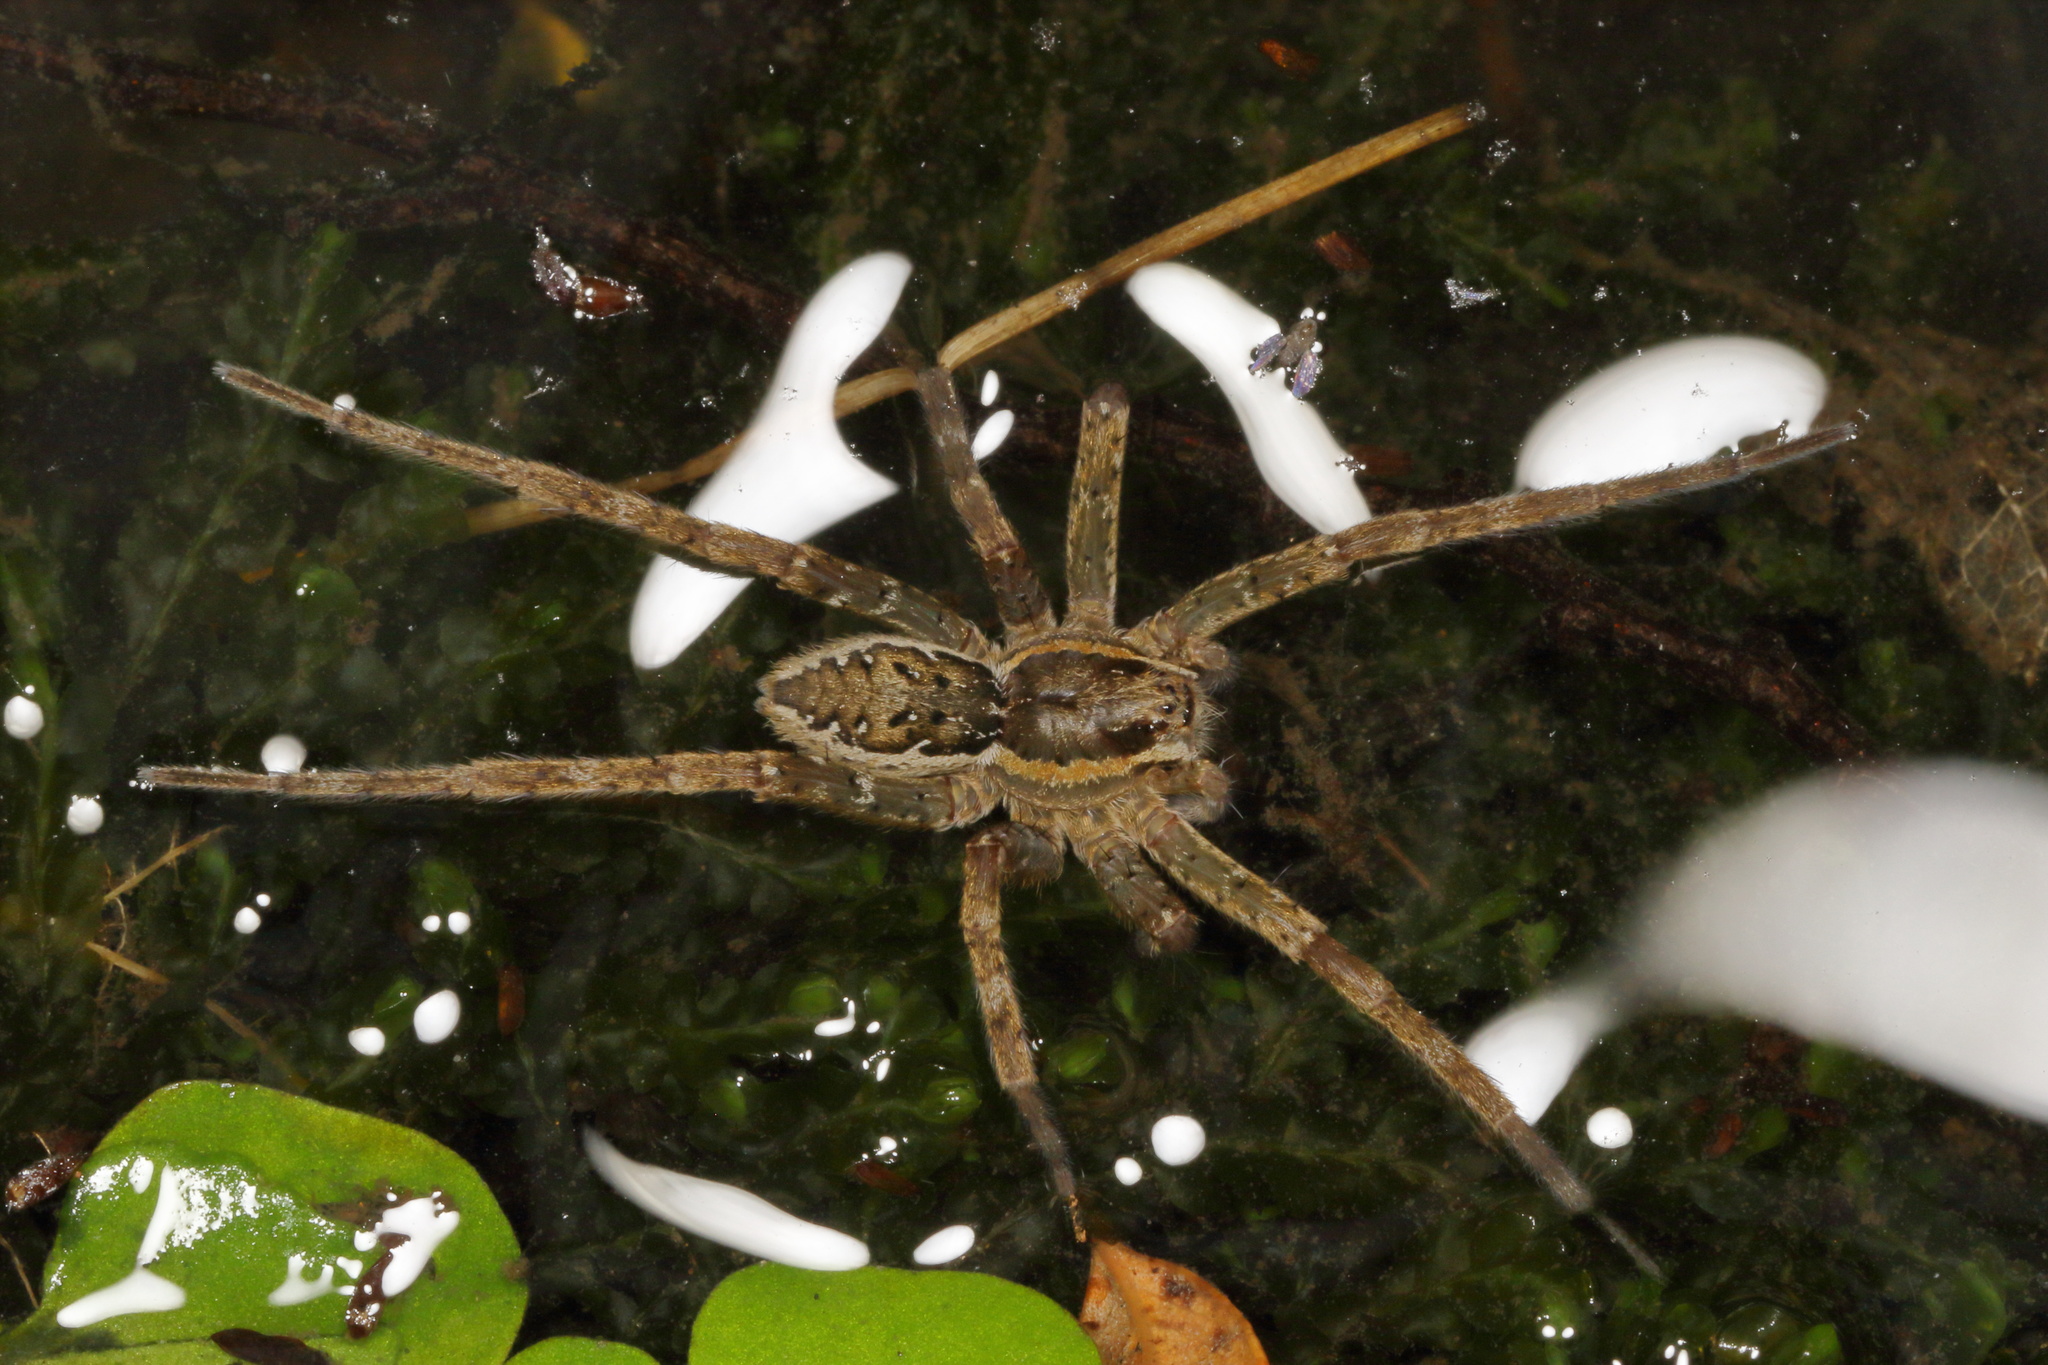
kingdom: Animalia
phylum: Arthropoda
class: Arachnida
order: Araneae
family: Pisauridae
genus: Dolomedes
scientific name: Dolomedes dondalei
